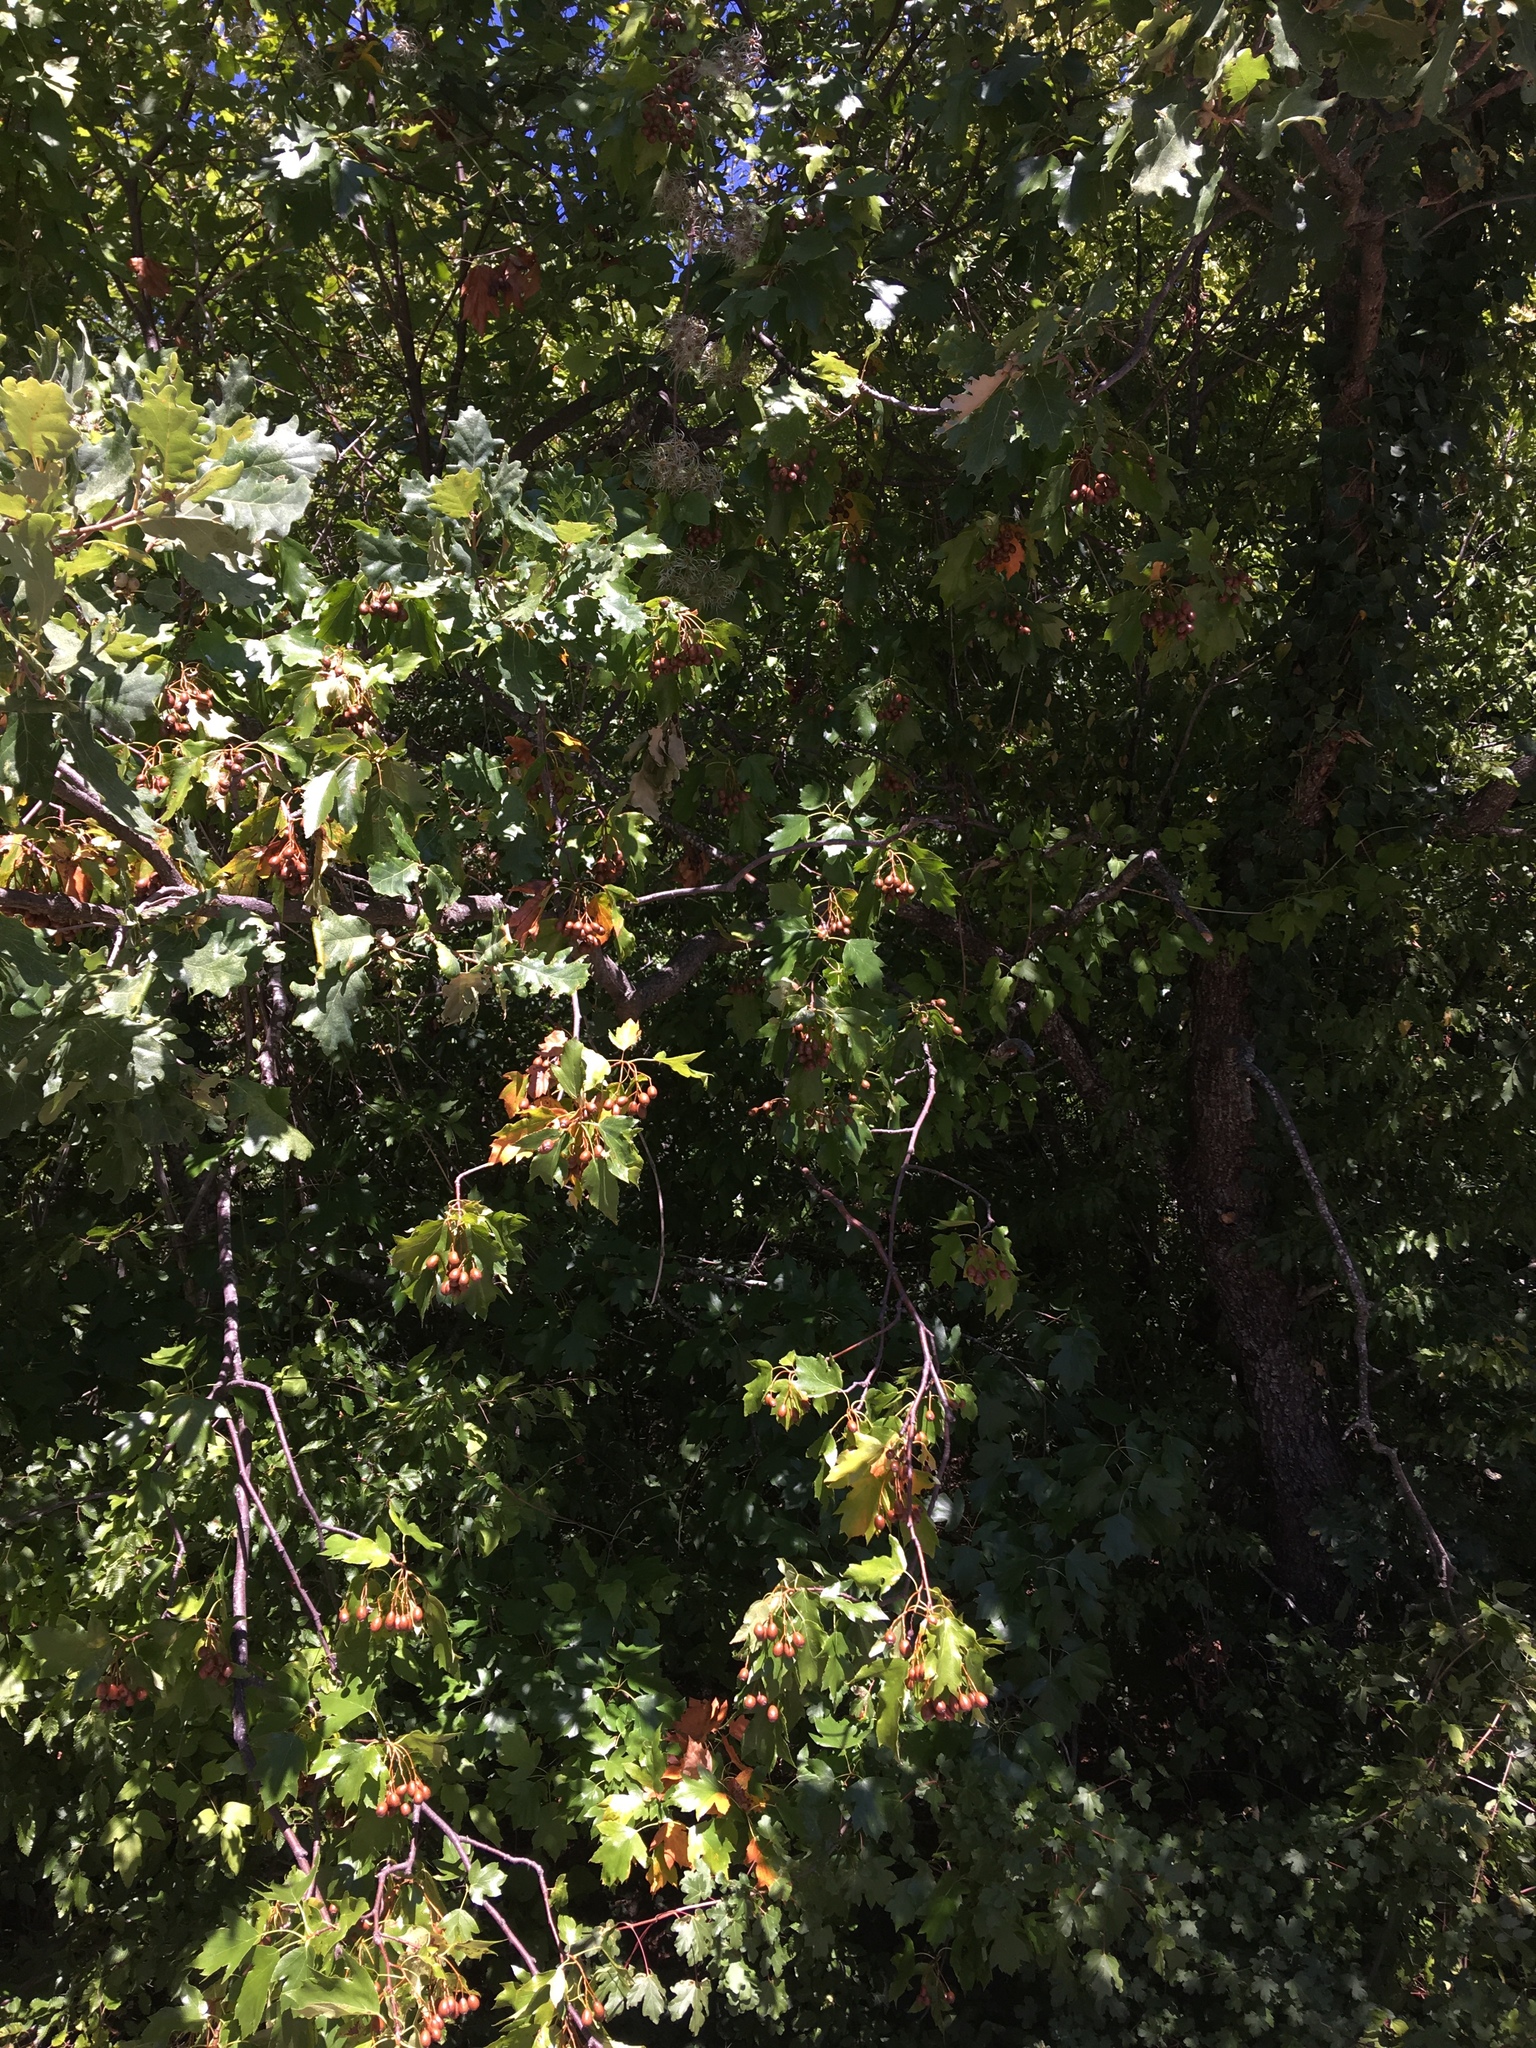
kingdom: Plantae
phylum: Tracheophyta
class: Magnoliopsida
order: Rosales
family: Rosaceae
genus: Torminalis
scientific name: Torminalis glaberrima
